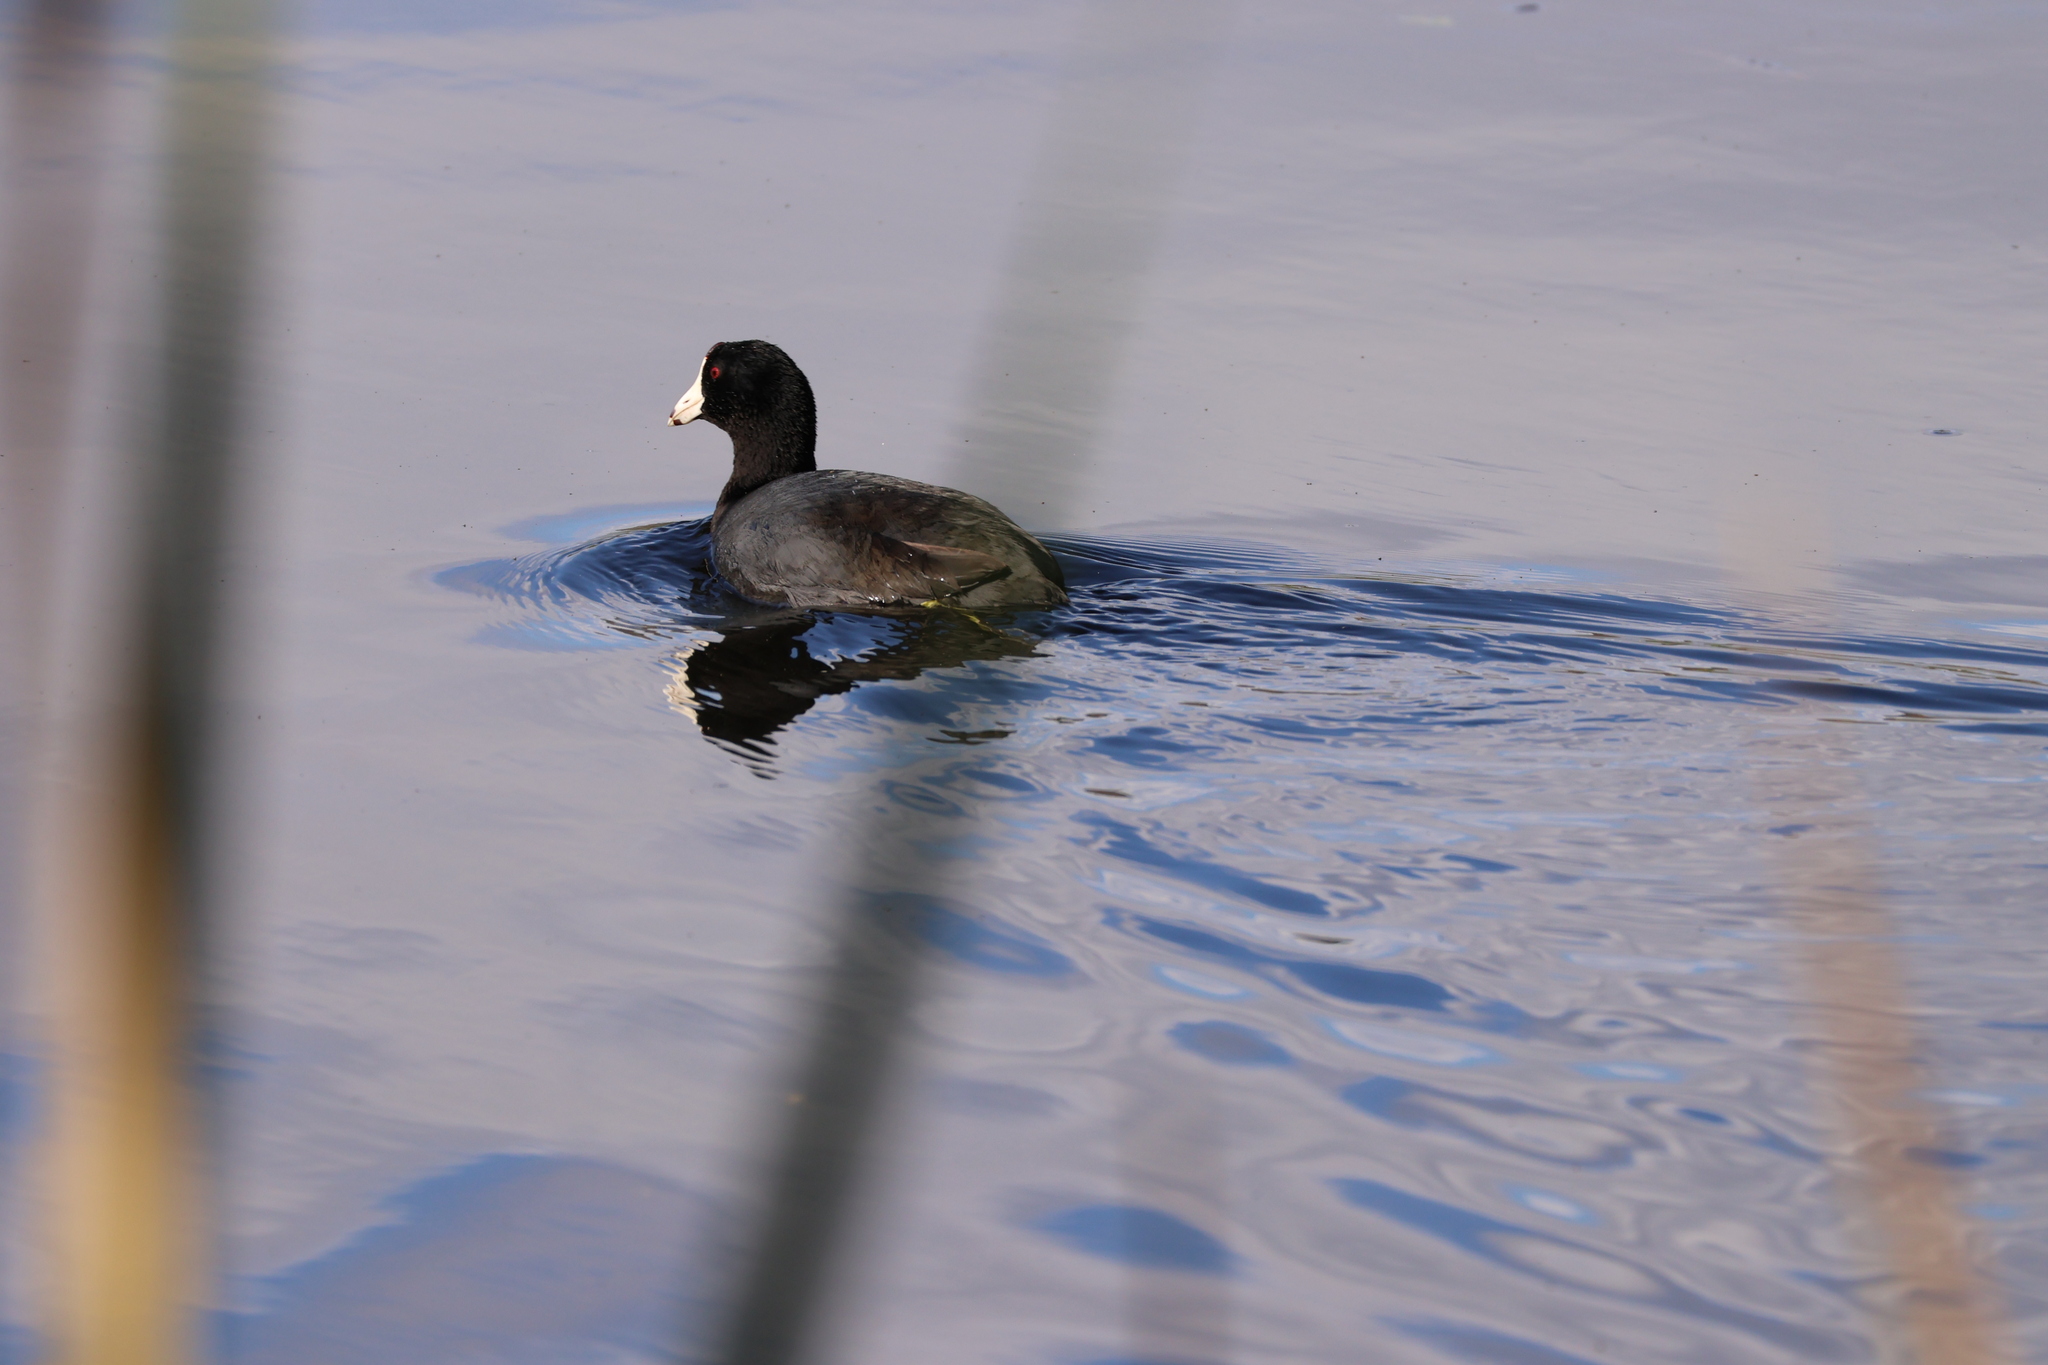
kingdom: Animalia
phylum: Chordata
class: Aves
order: Gruiformes
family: Rallidae
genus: Fulica
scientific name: Fulica americana
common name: American coot
